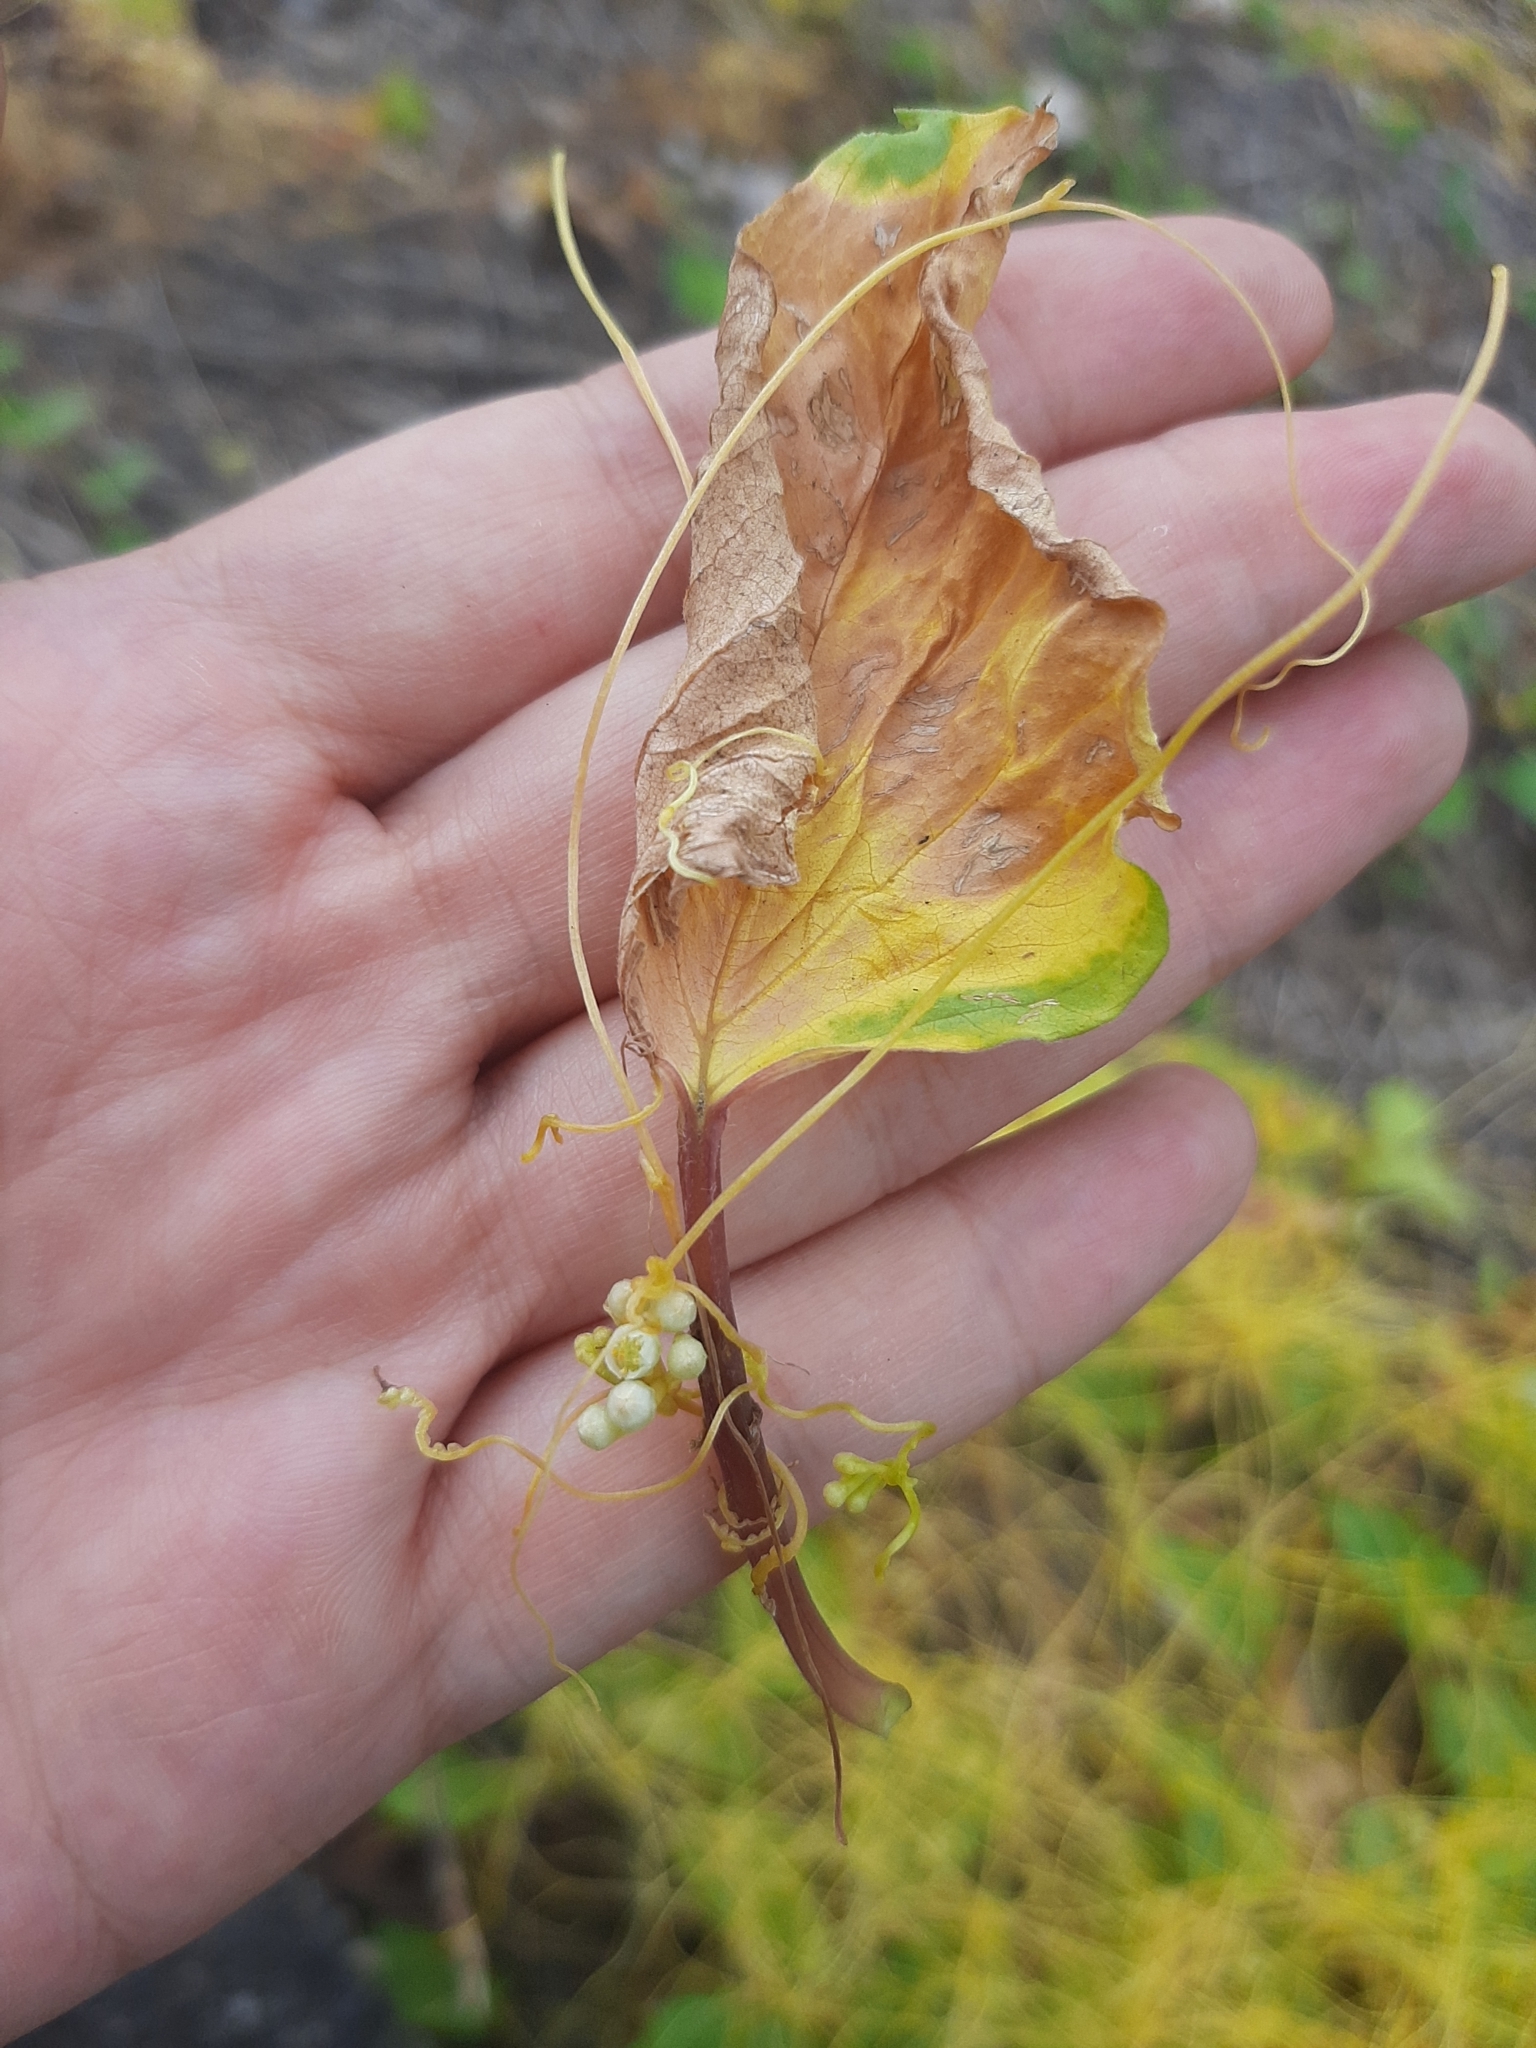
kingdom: Plantae
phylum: Tracheophyta
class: Magnoliopsida
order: Solanales
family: Convolvulaceae
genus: Cuscuta
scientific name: Cuscuta campestris
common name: Yellow dodder
